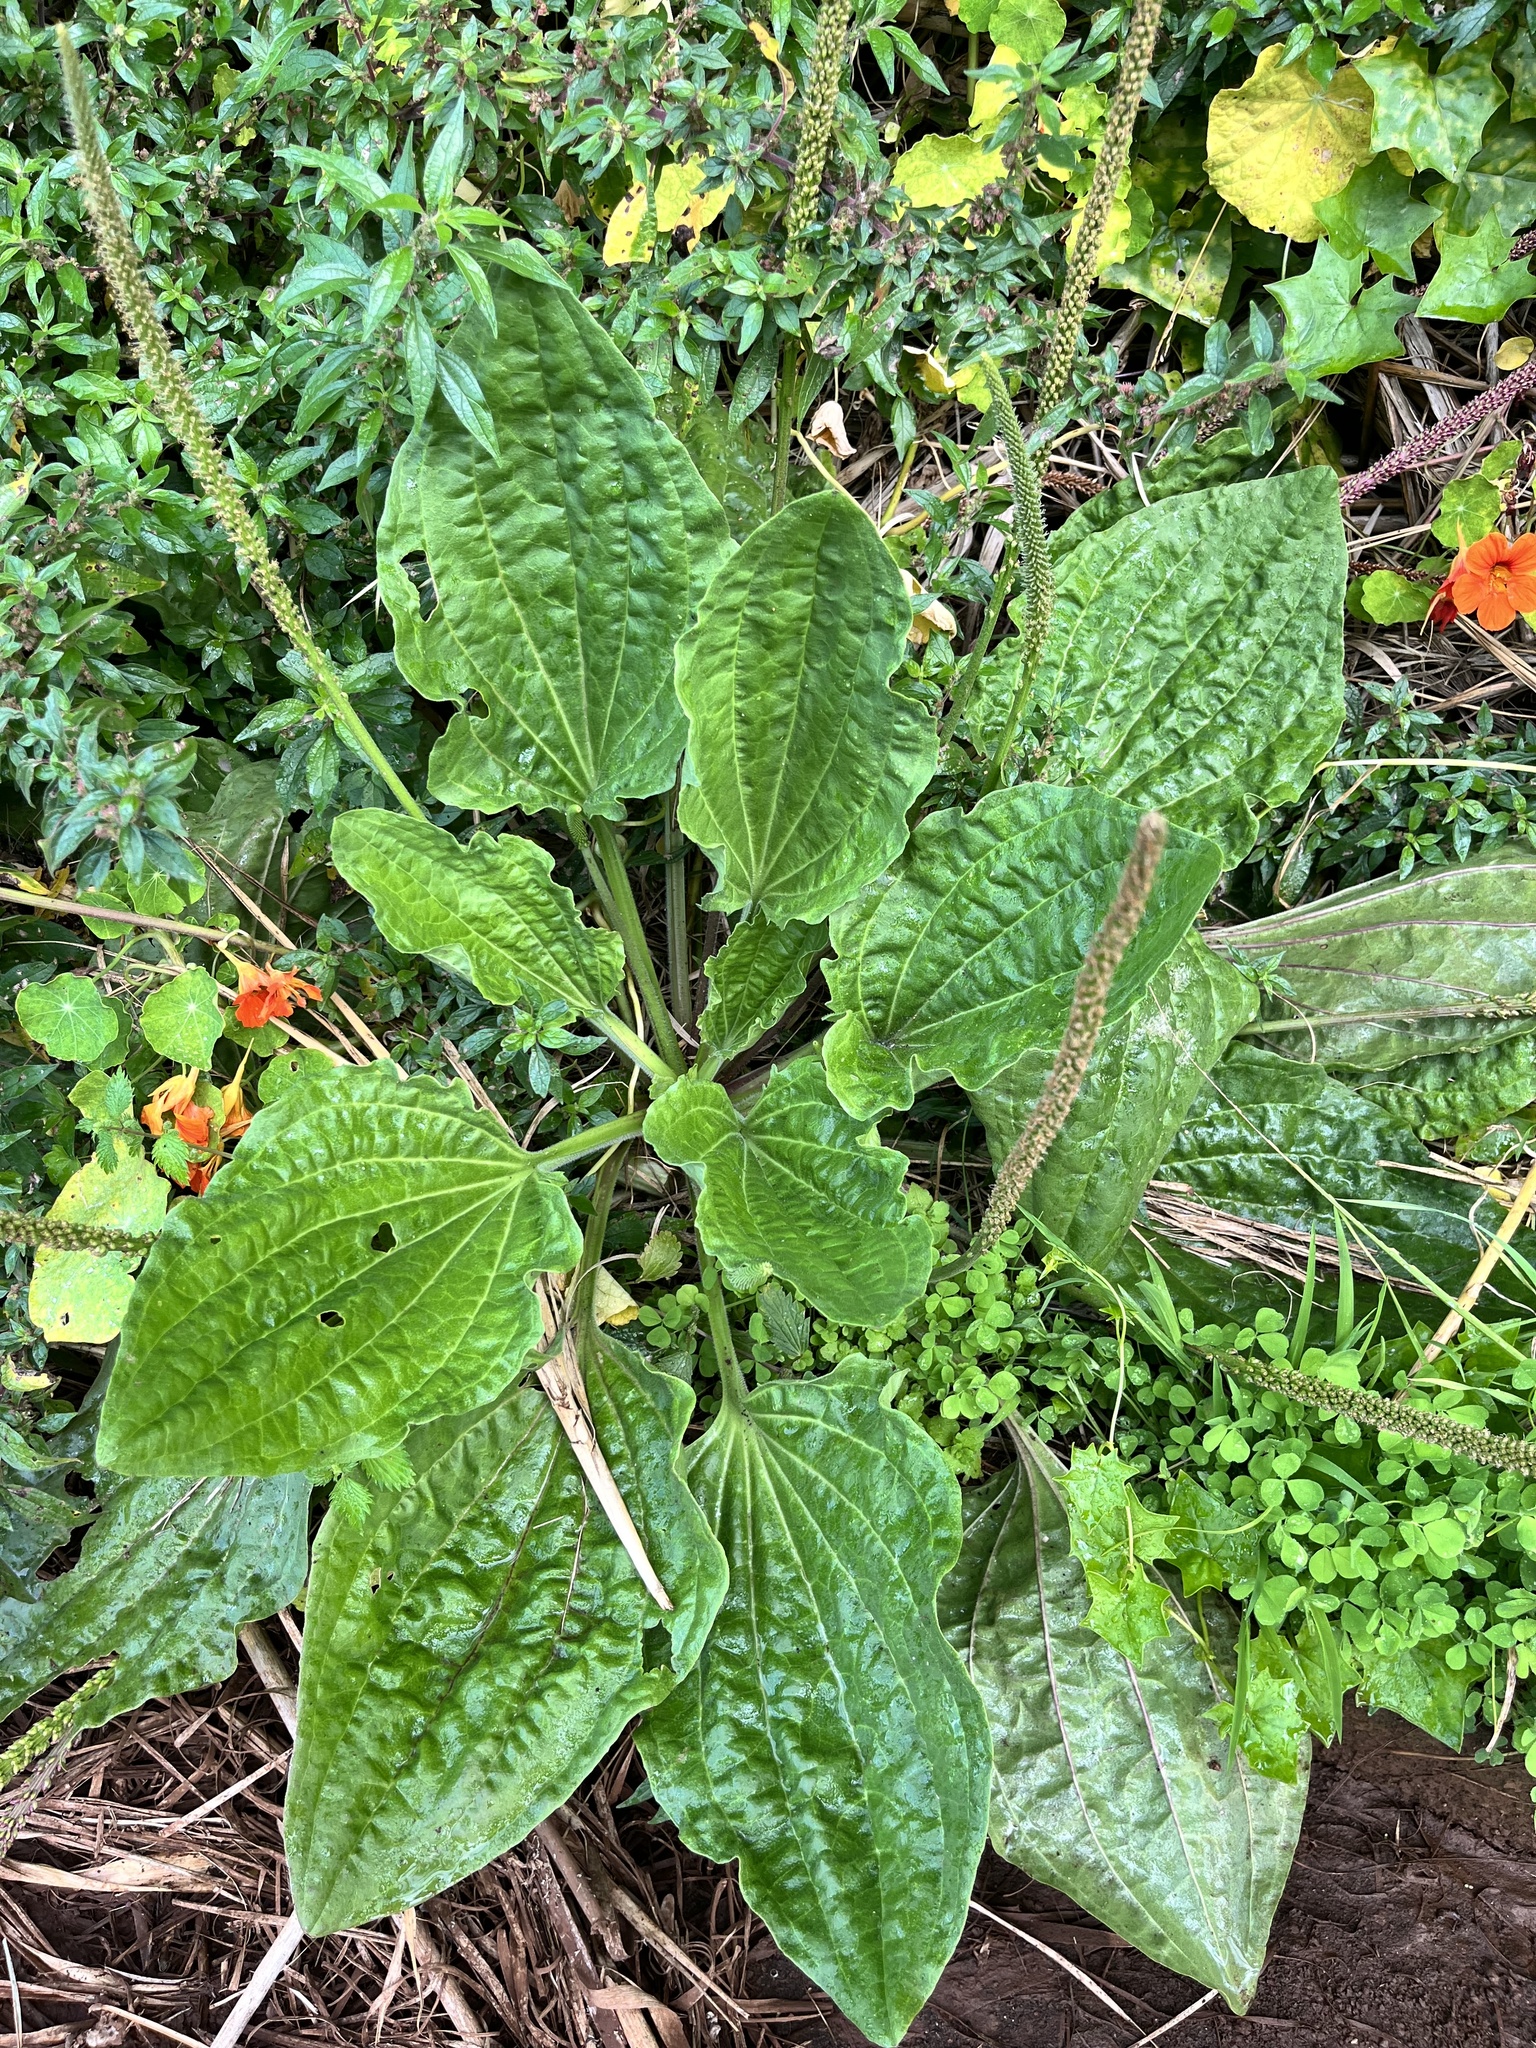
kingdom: Plantae
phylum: Tracheophyta
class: Magnoliopsida
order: Lamiales
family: Plantaginaceae
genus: Plantago
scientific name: Plantago major
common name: Common plantain
